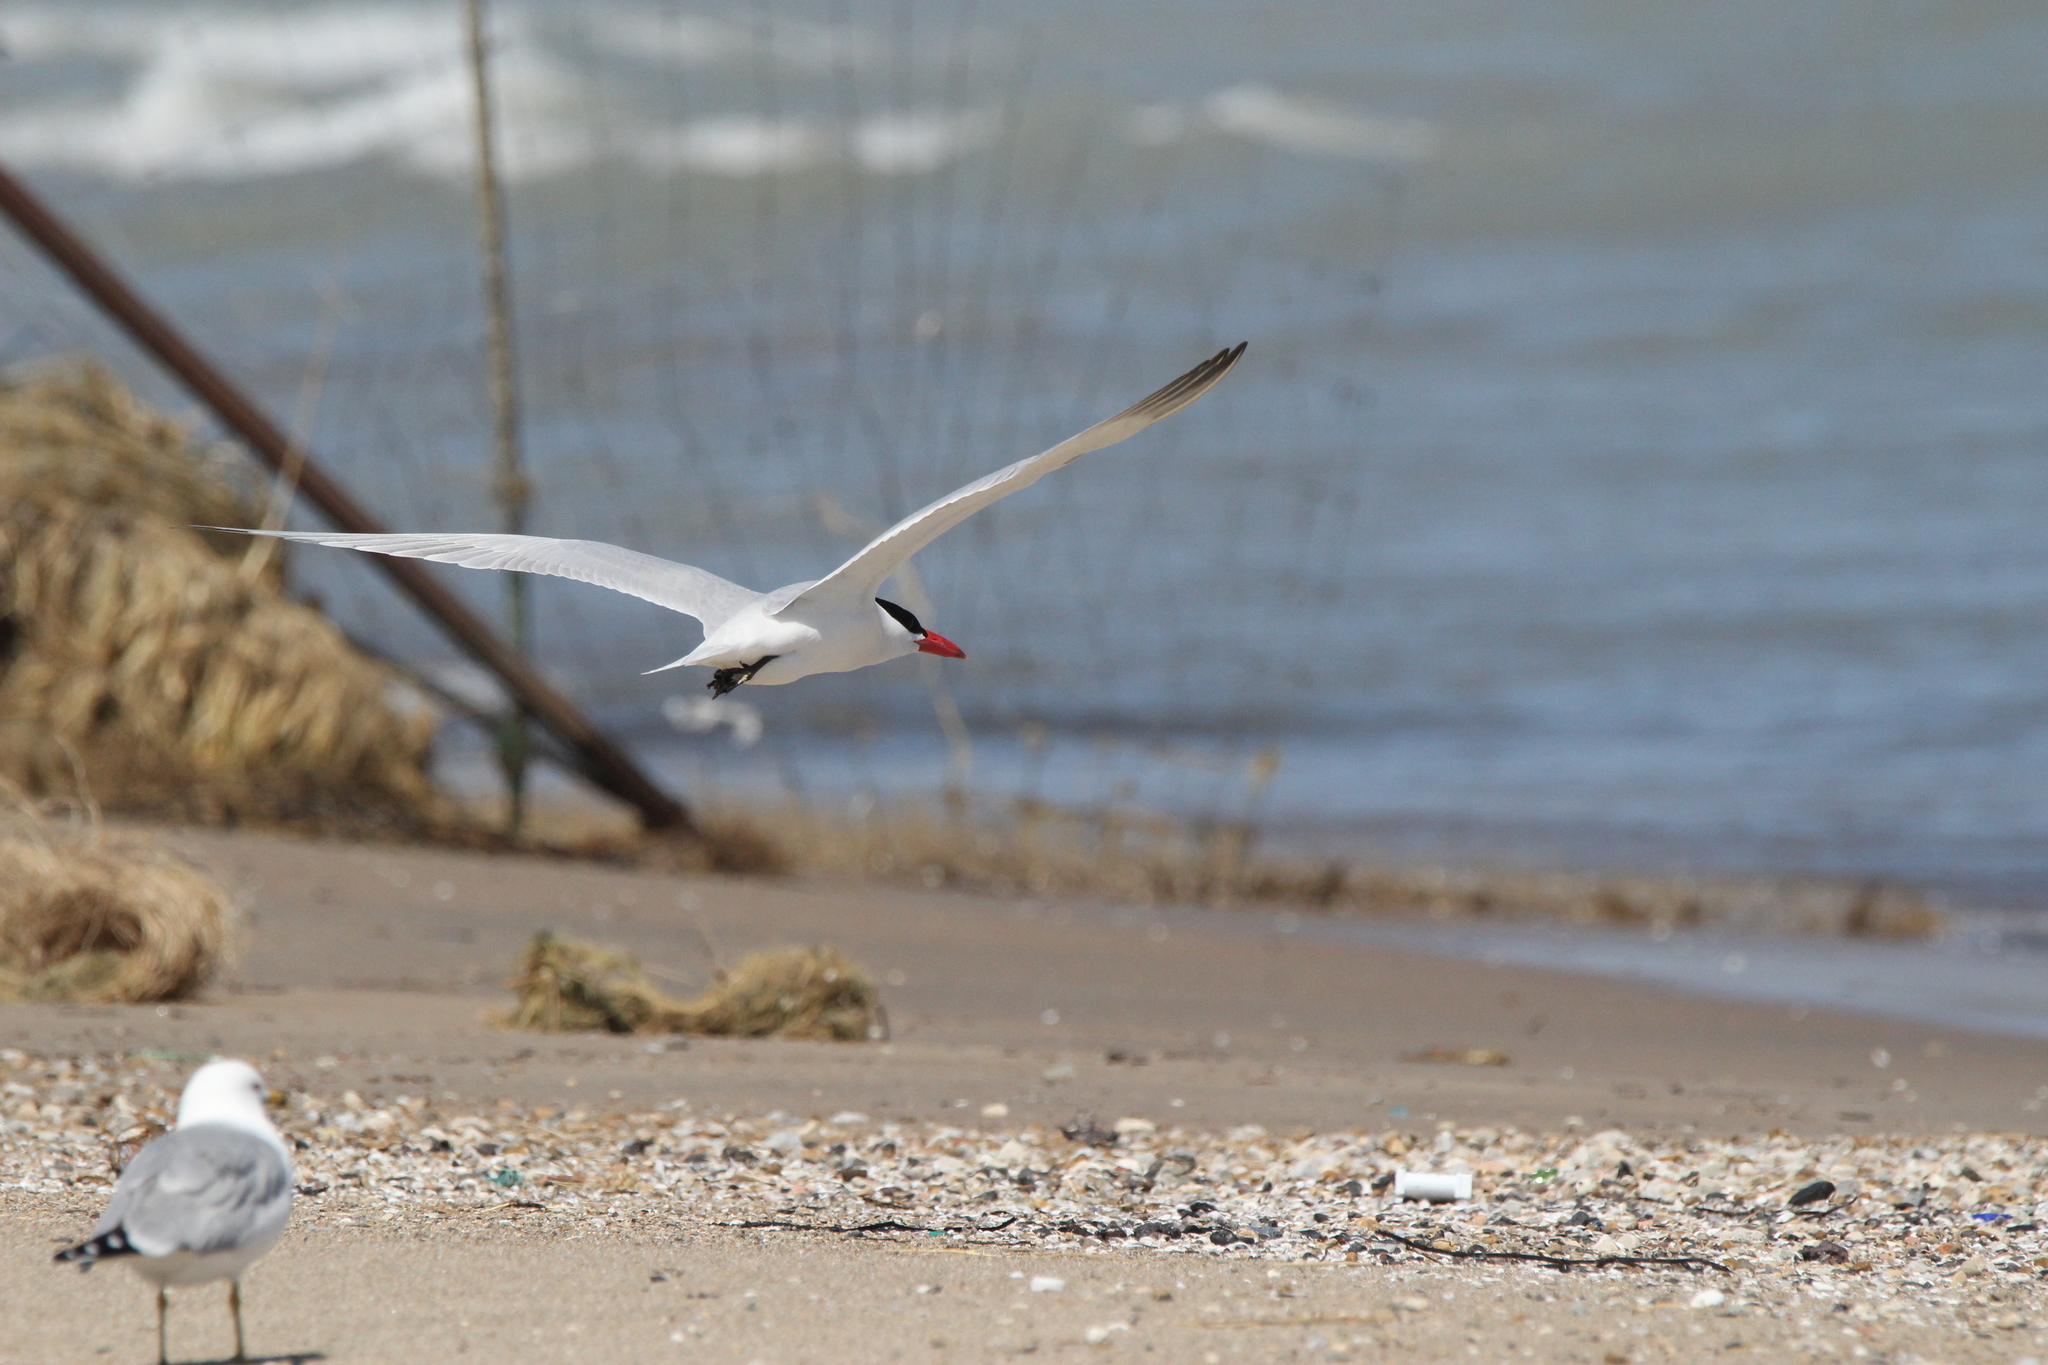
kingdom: Animalia
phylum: Chordata
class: Aves
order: Charadriiformes
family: Laridae
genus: Hydroprogne
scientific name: Hydroprogne caspia
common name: Caspian tern
